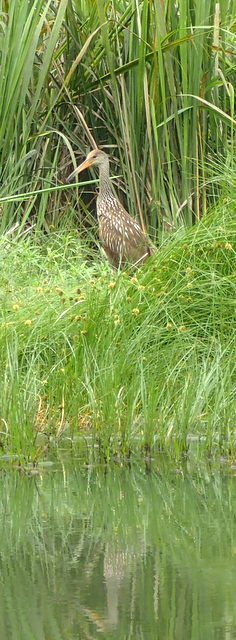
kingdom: Animalia
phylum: Chordata
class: Aves
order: Gruiformes
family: Aramidae
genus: Aramus
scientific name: Aramus guarauna
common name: Limpkin
